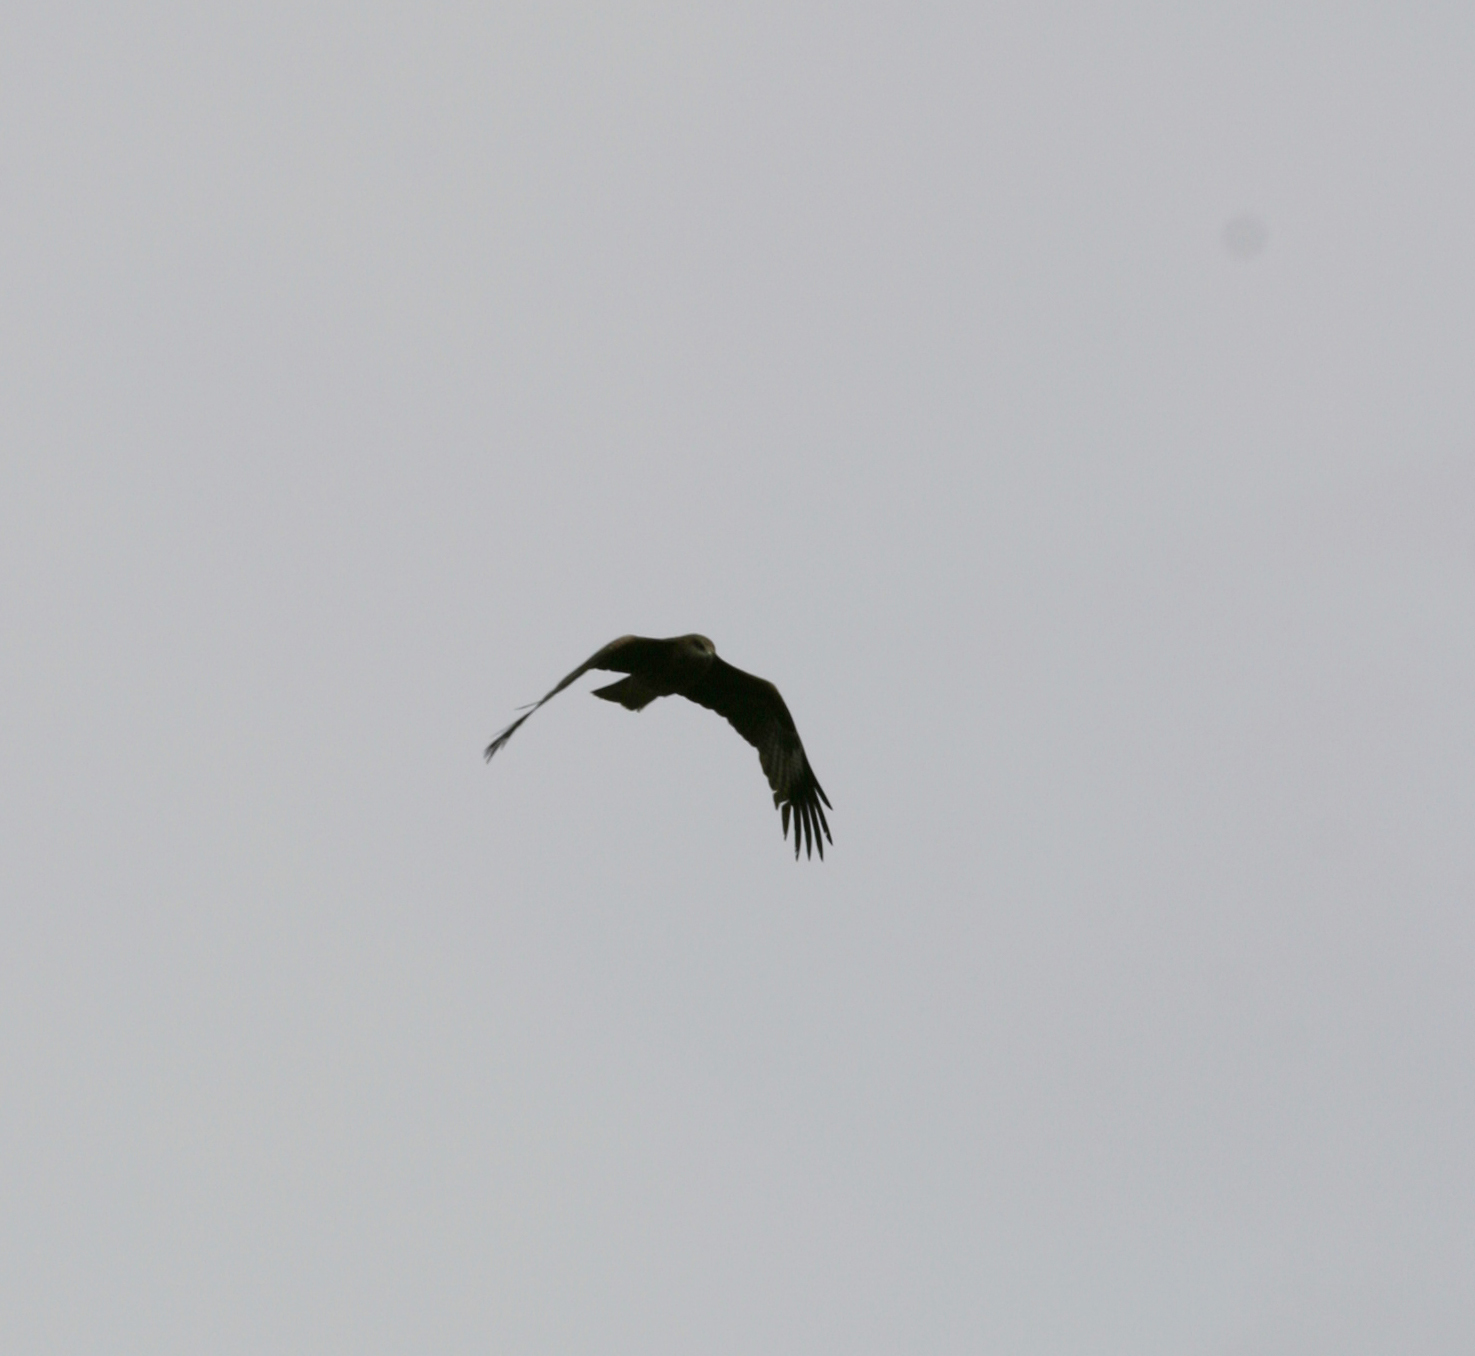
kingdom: Animalia
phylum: Chordata
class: Aves
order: Accipitriformes
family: Accipitridae
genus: Milvus
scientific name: Milvus migrans
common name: Black kite
